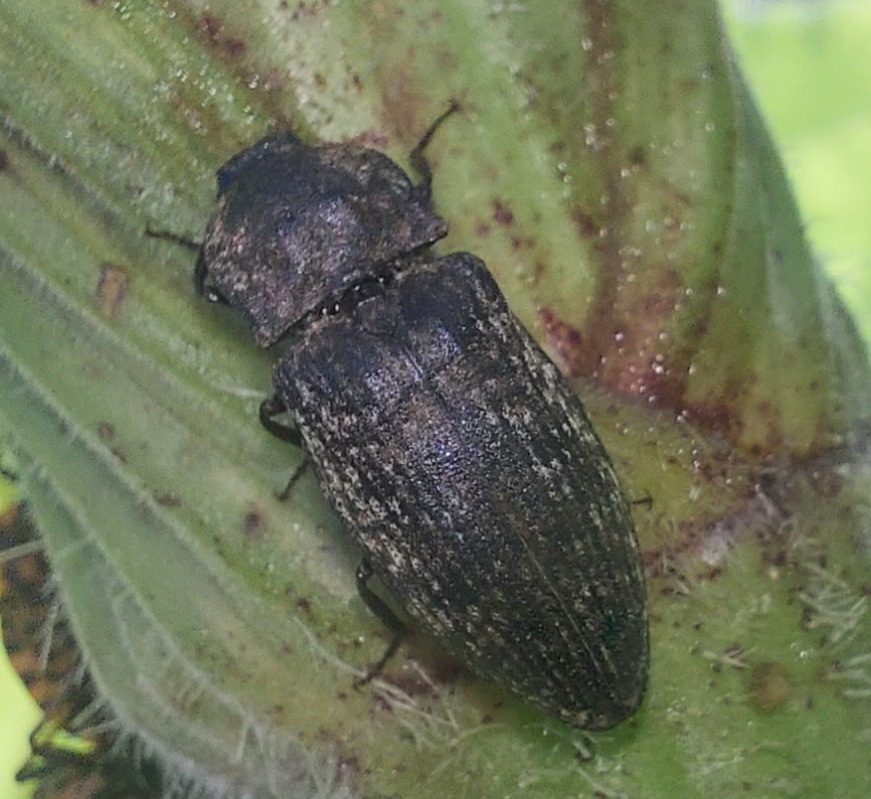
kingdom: Animalia
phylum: Arthropoda
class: Insecta
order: Coleoptera
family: Elateridae
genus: Agrypnus
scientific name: Agrypnus murinus
